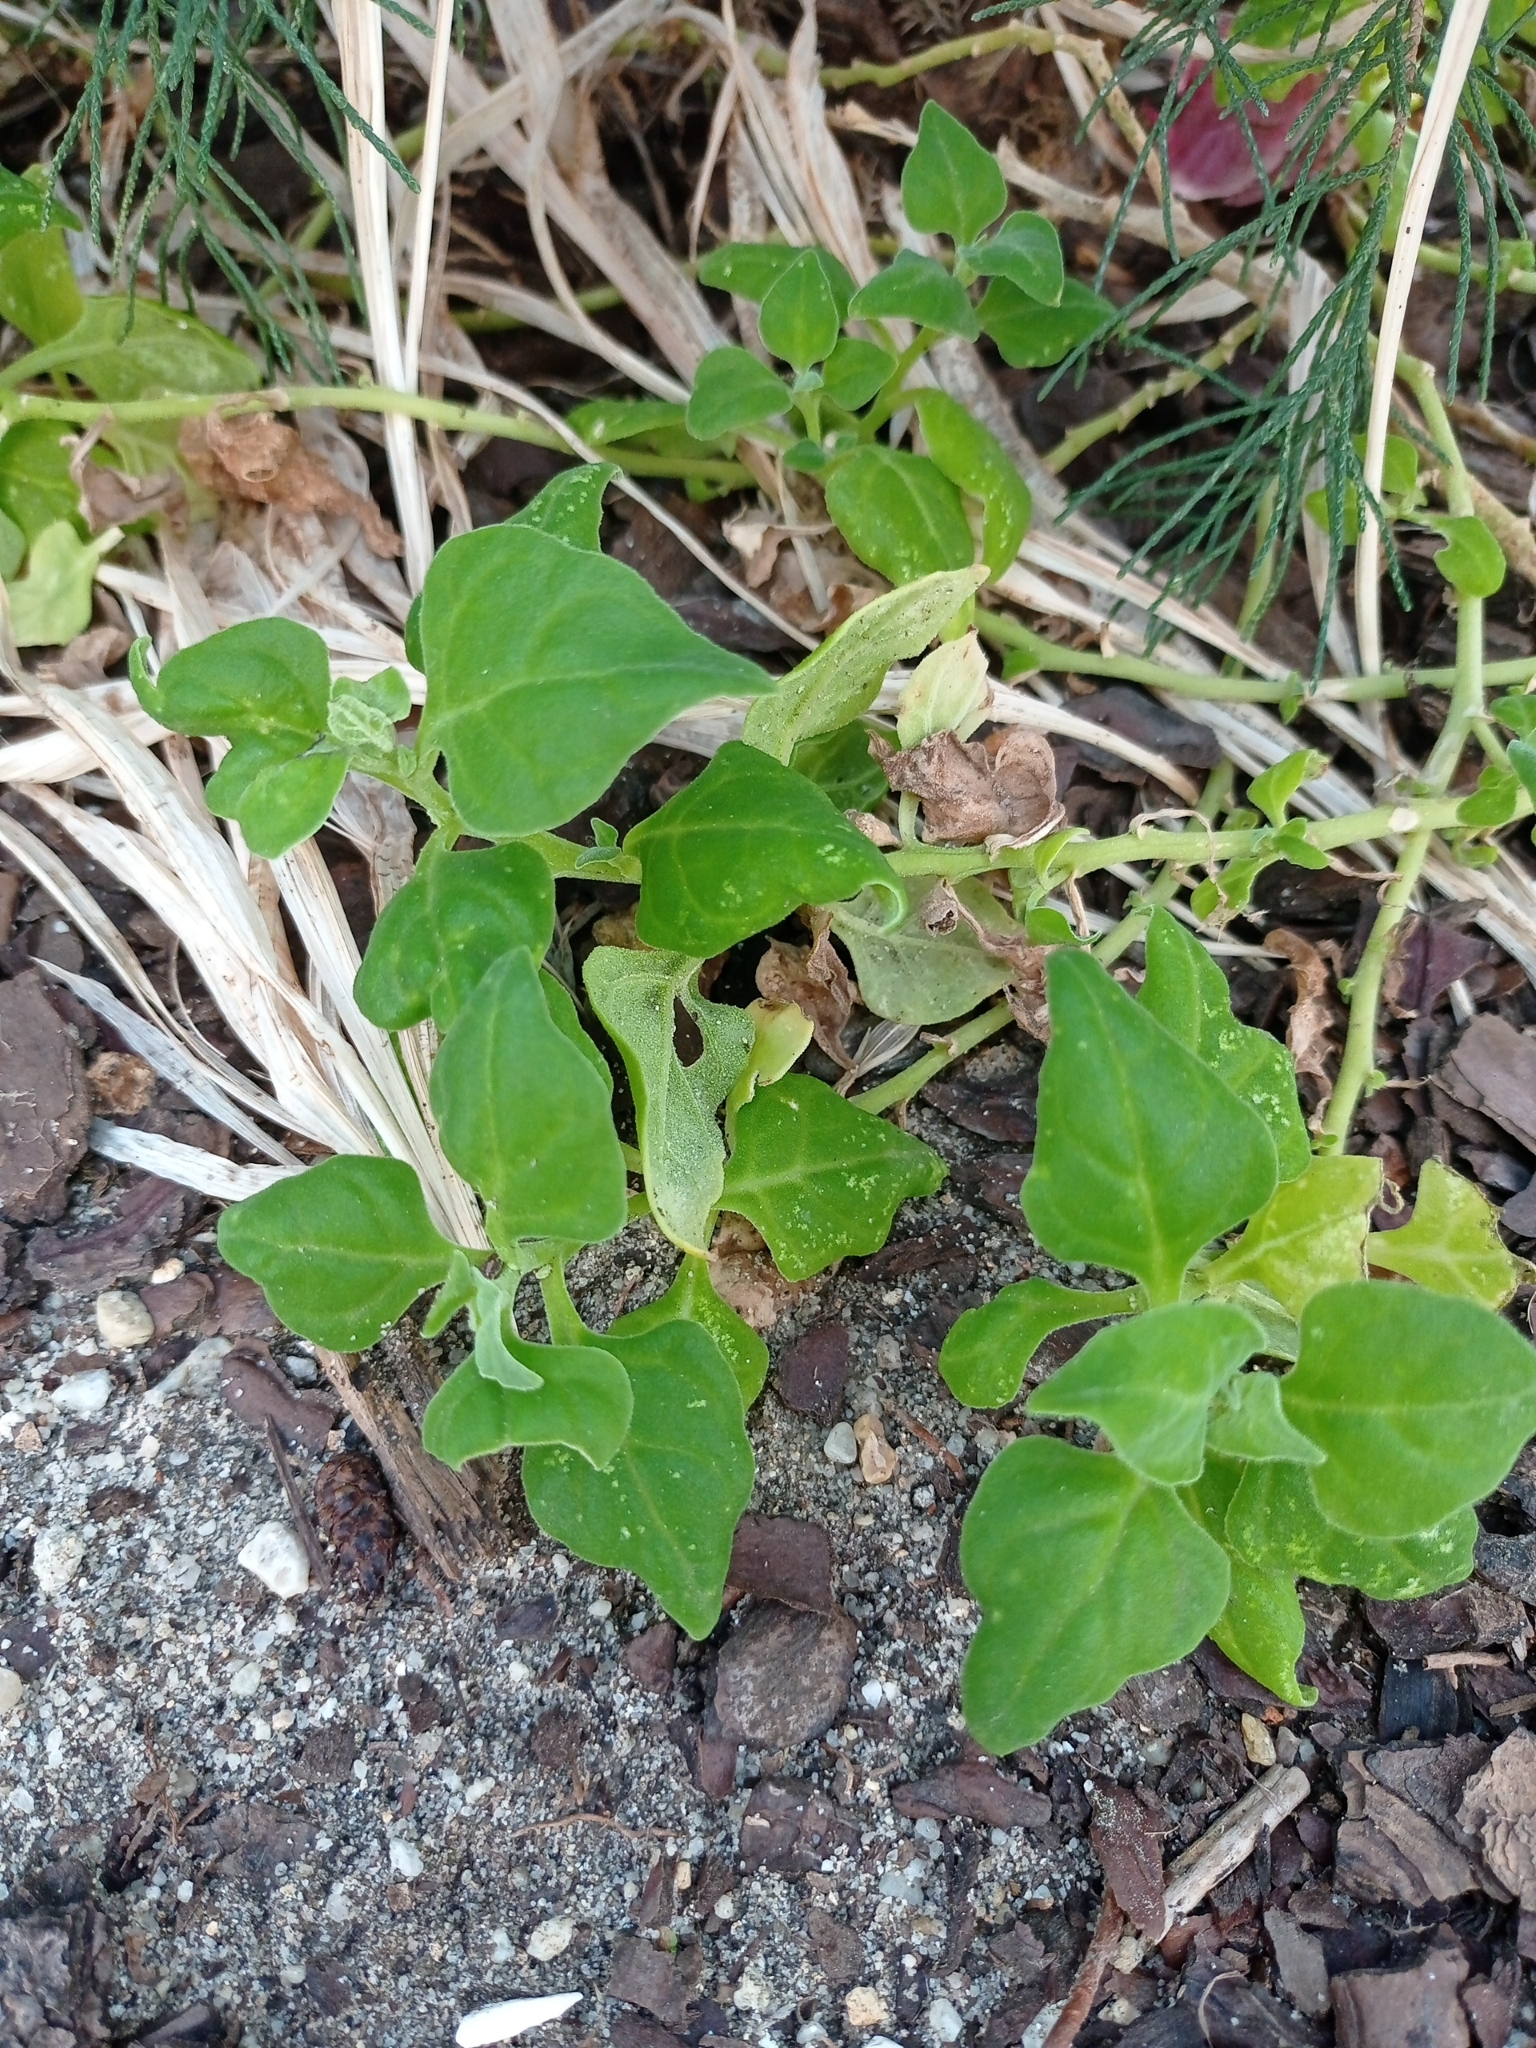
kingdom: Plantae
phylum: Tracheophyta
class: Magnoliopsida
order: Caryophyllales
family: Aizoaceae
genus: Tetragonia
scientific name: Tetragonia tetragonoides
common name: New zealand-spinach
